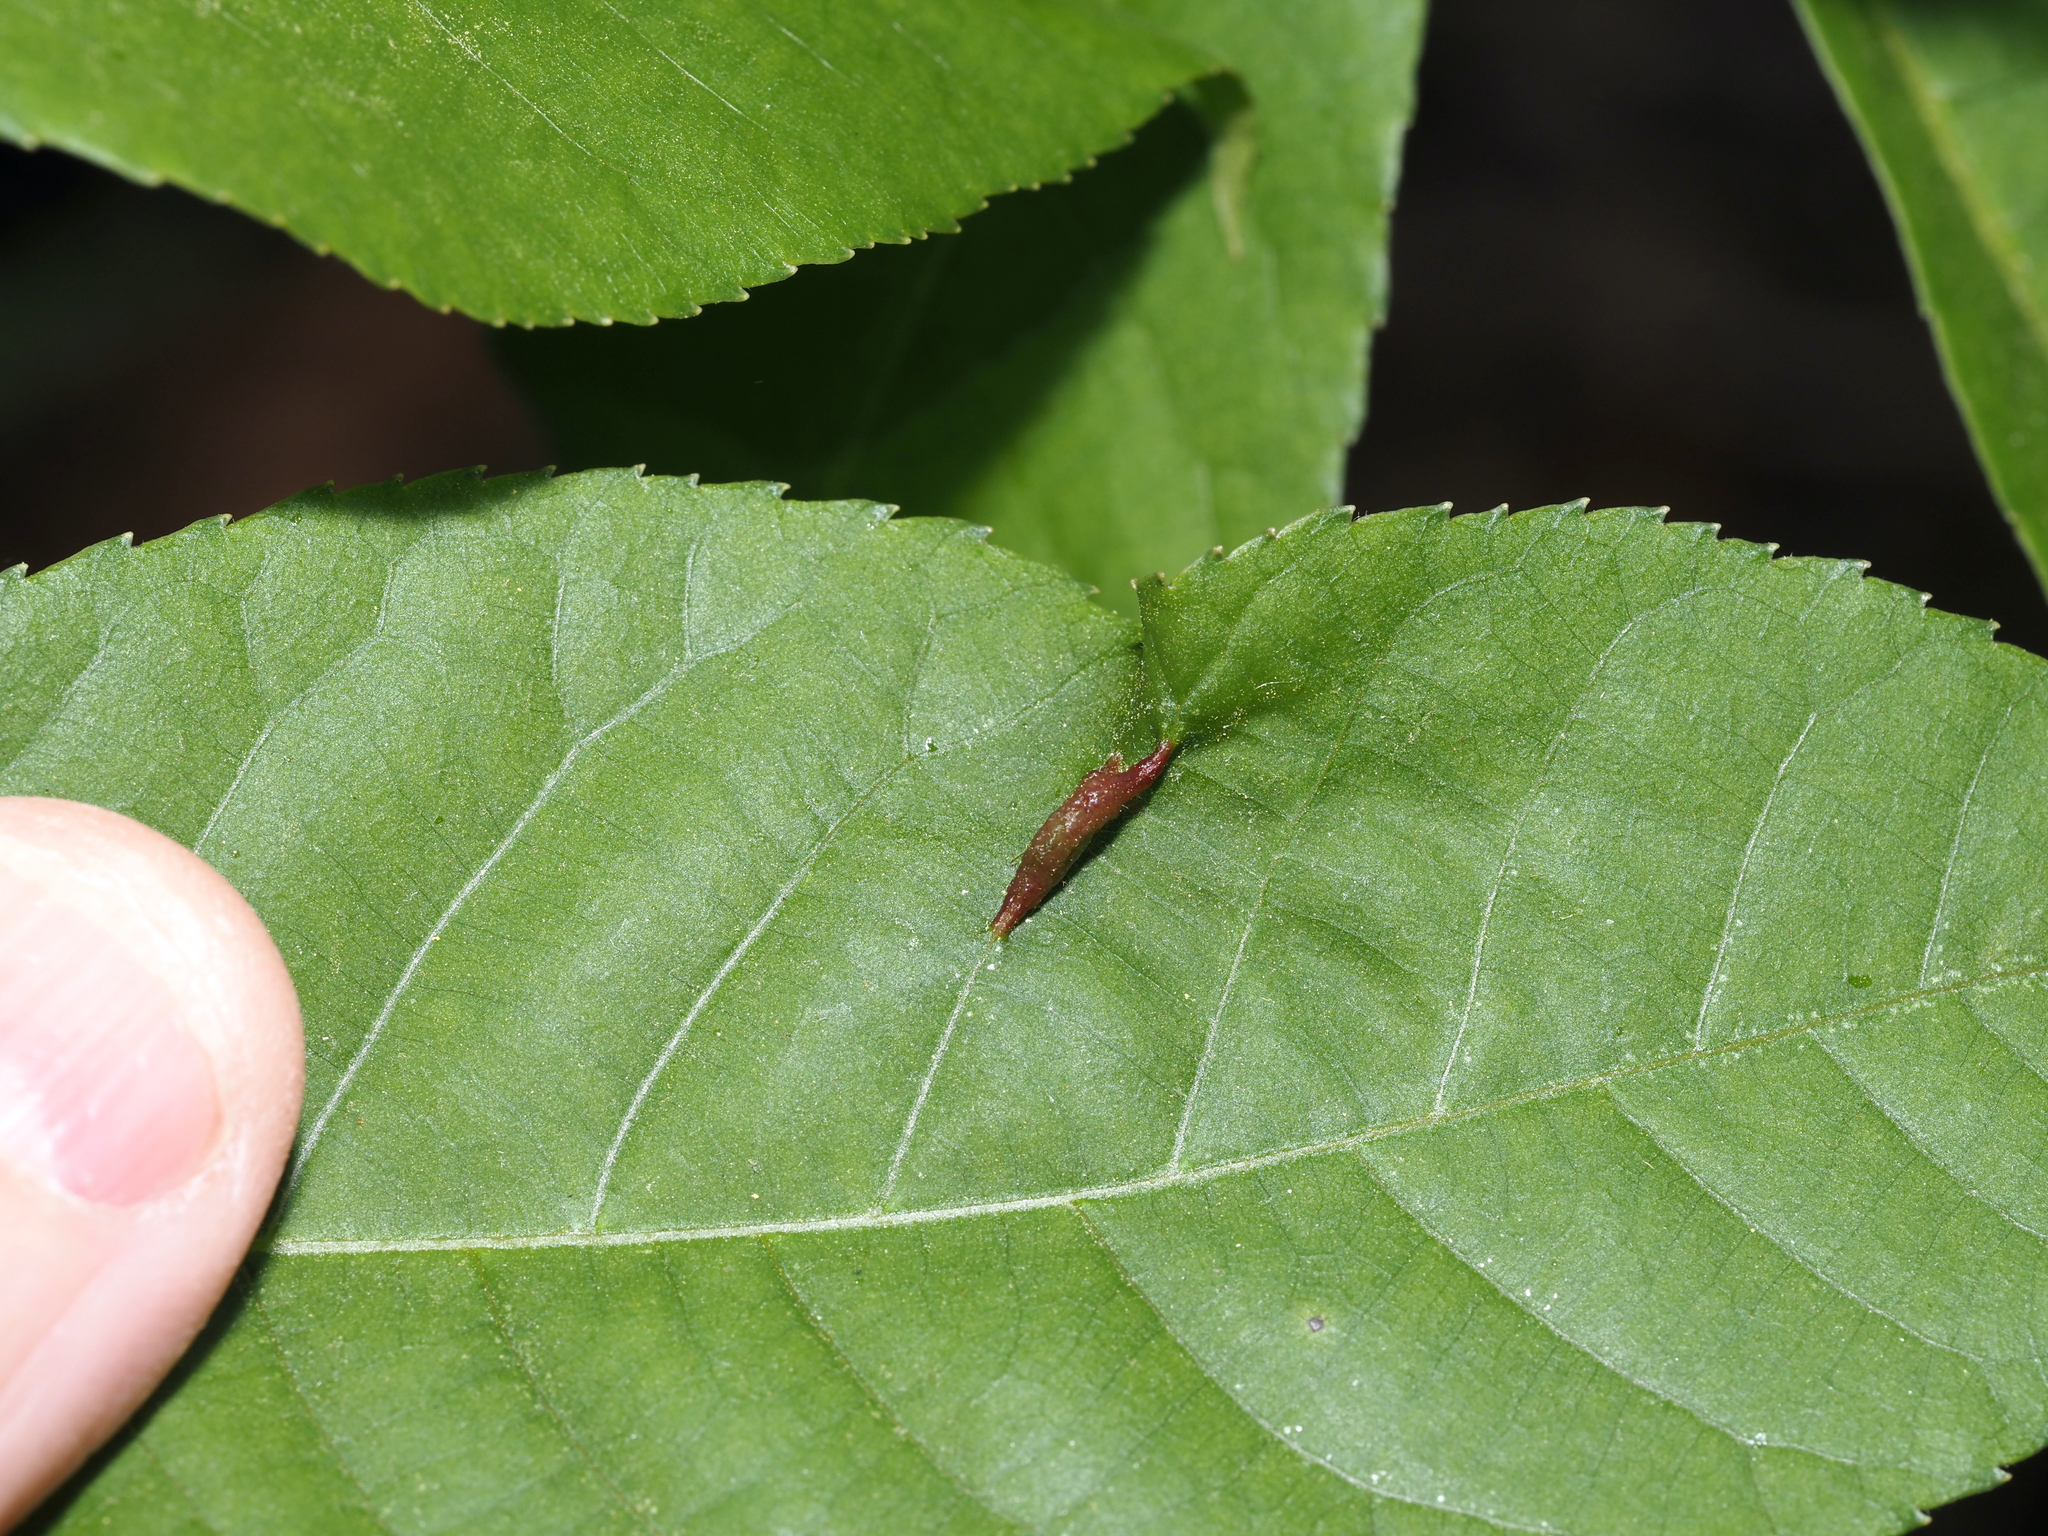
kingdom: Animalia
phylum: Arthropoda
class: Insecta
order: Hemiptera
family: Phylloxeridae
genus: Phylloxera
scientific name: Phylloxera caryaevenae
